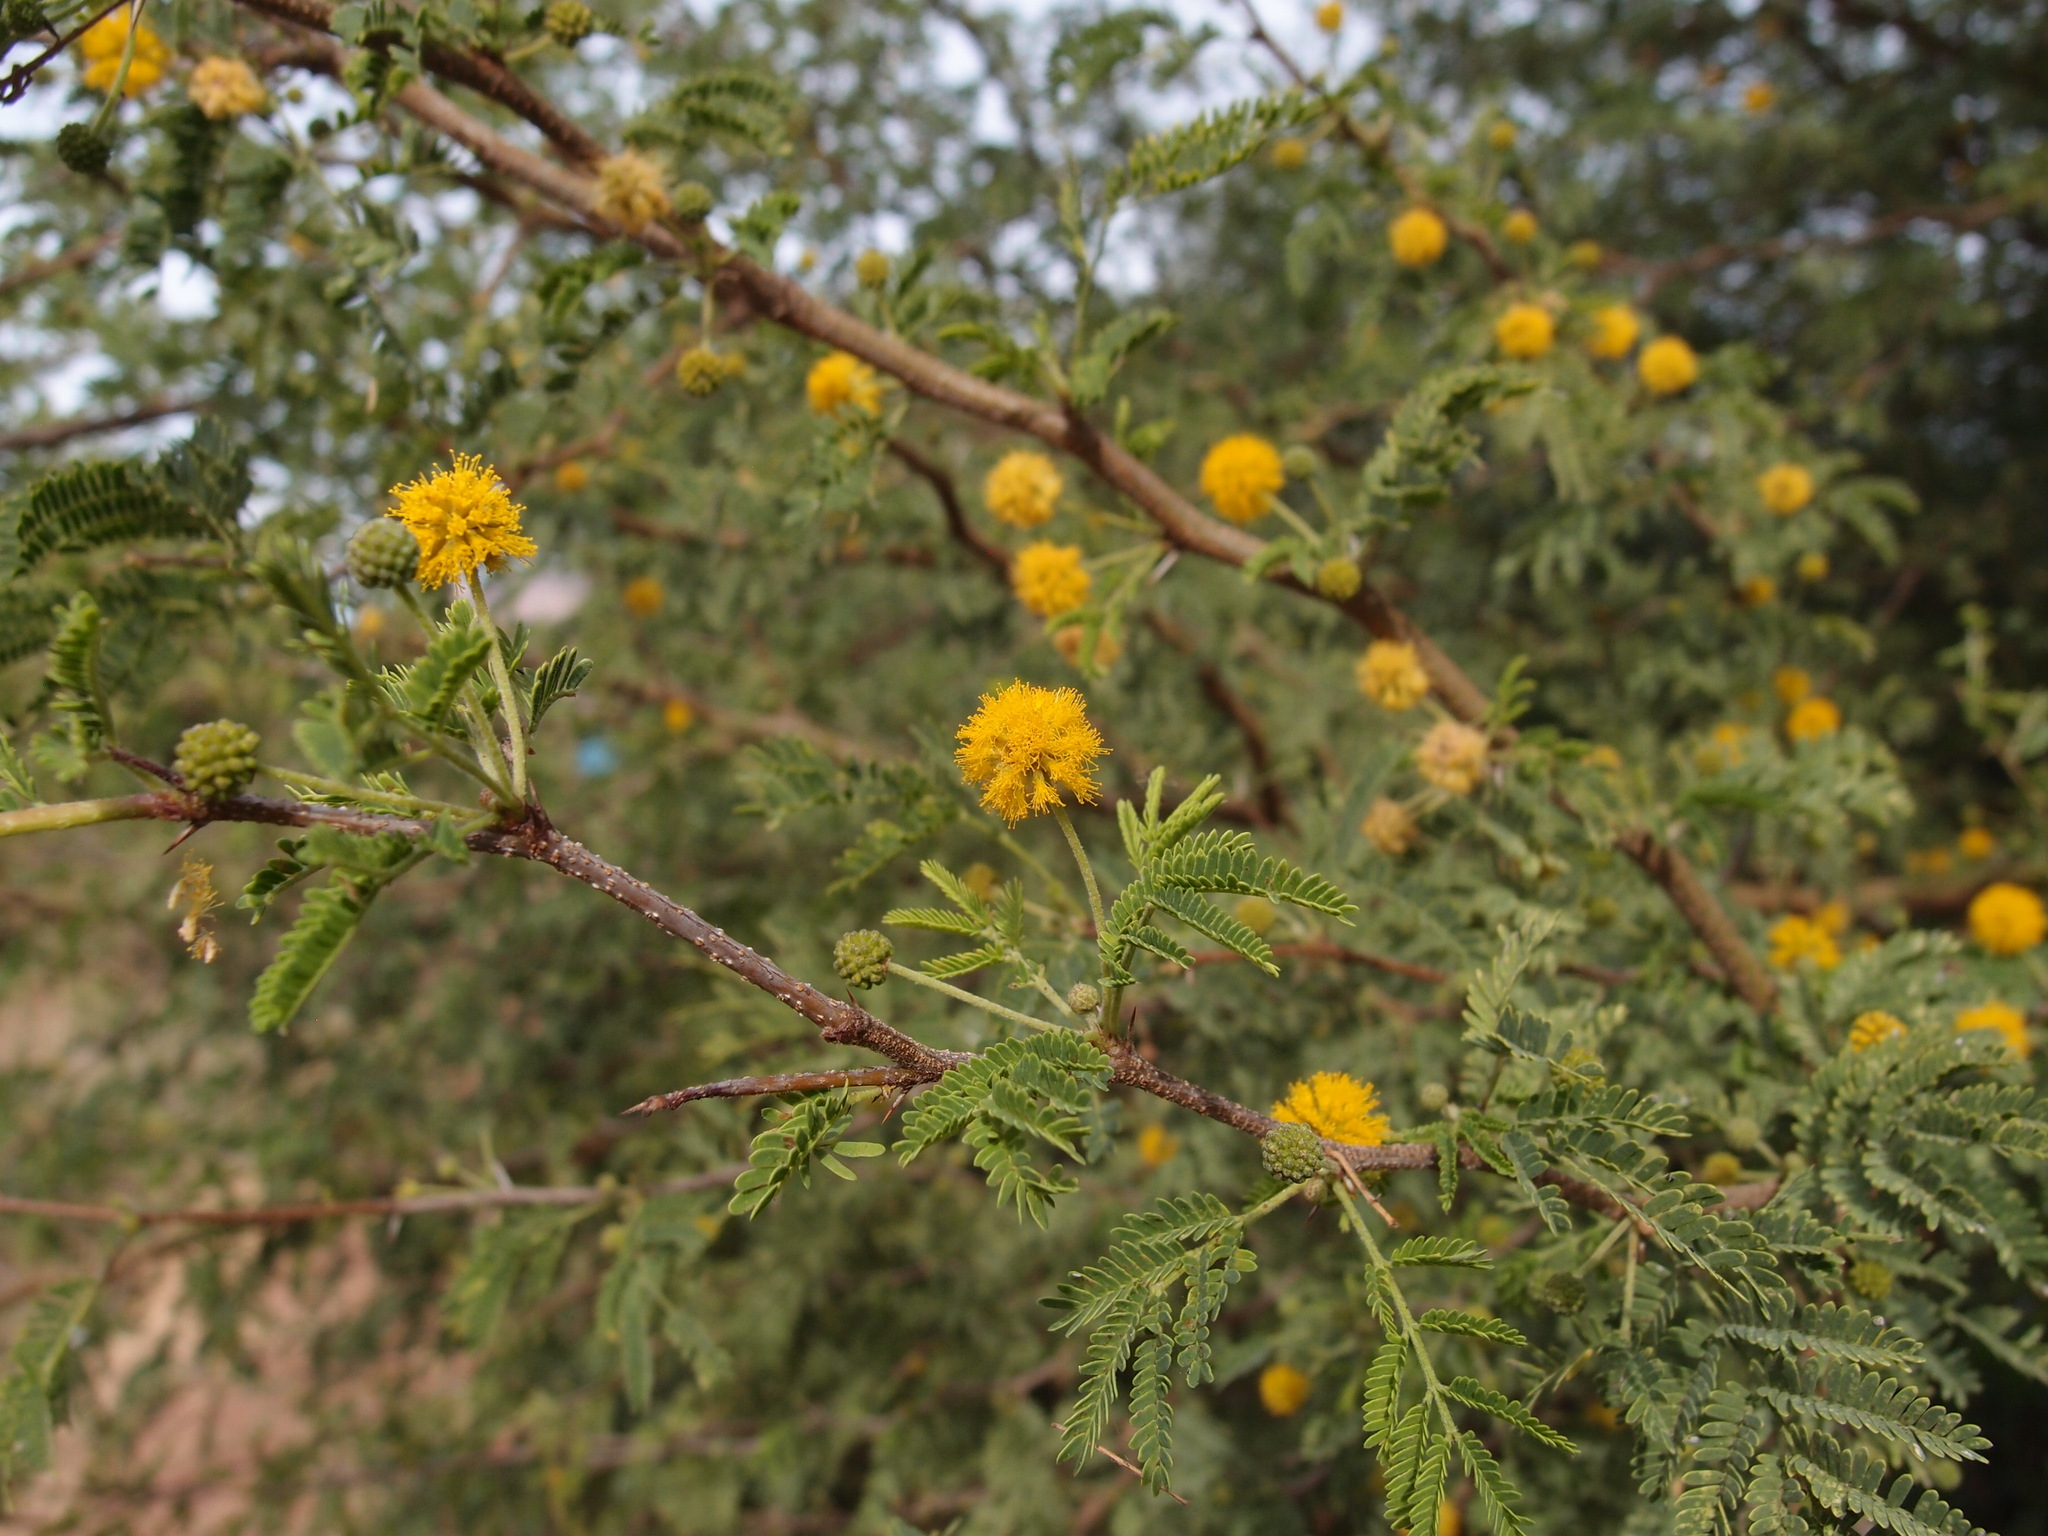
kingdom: Plantae
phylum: Tracheophyta
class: Magnoliopsida
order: Fabales
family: Fabaceae
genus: Vachellia
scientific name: Vachellia farnesiana
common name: Sweet acacia
